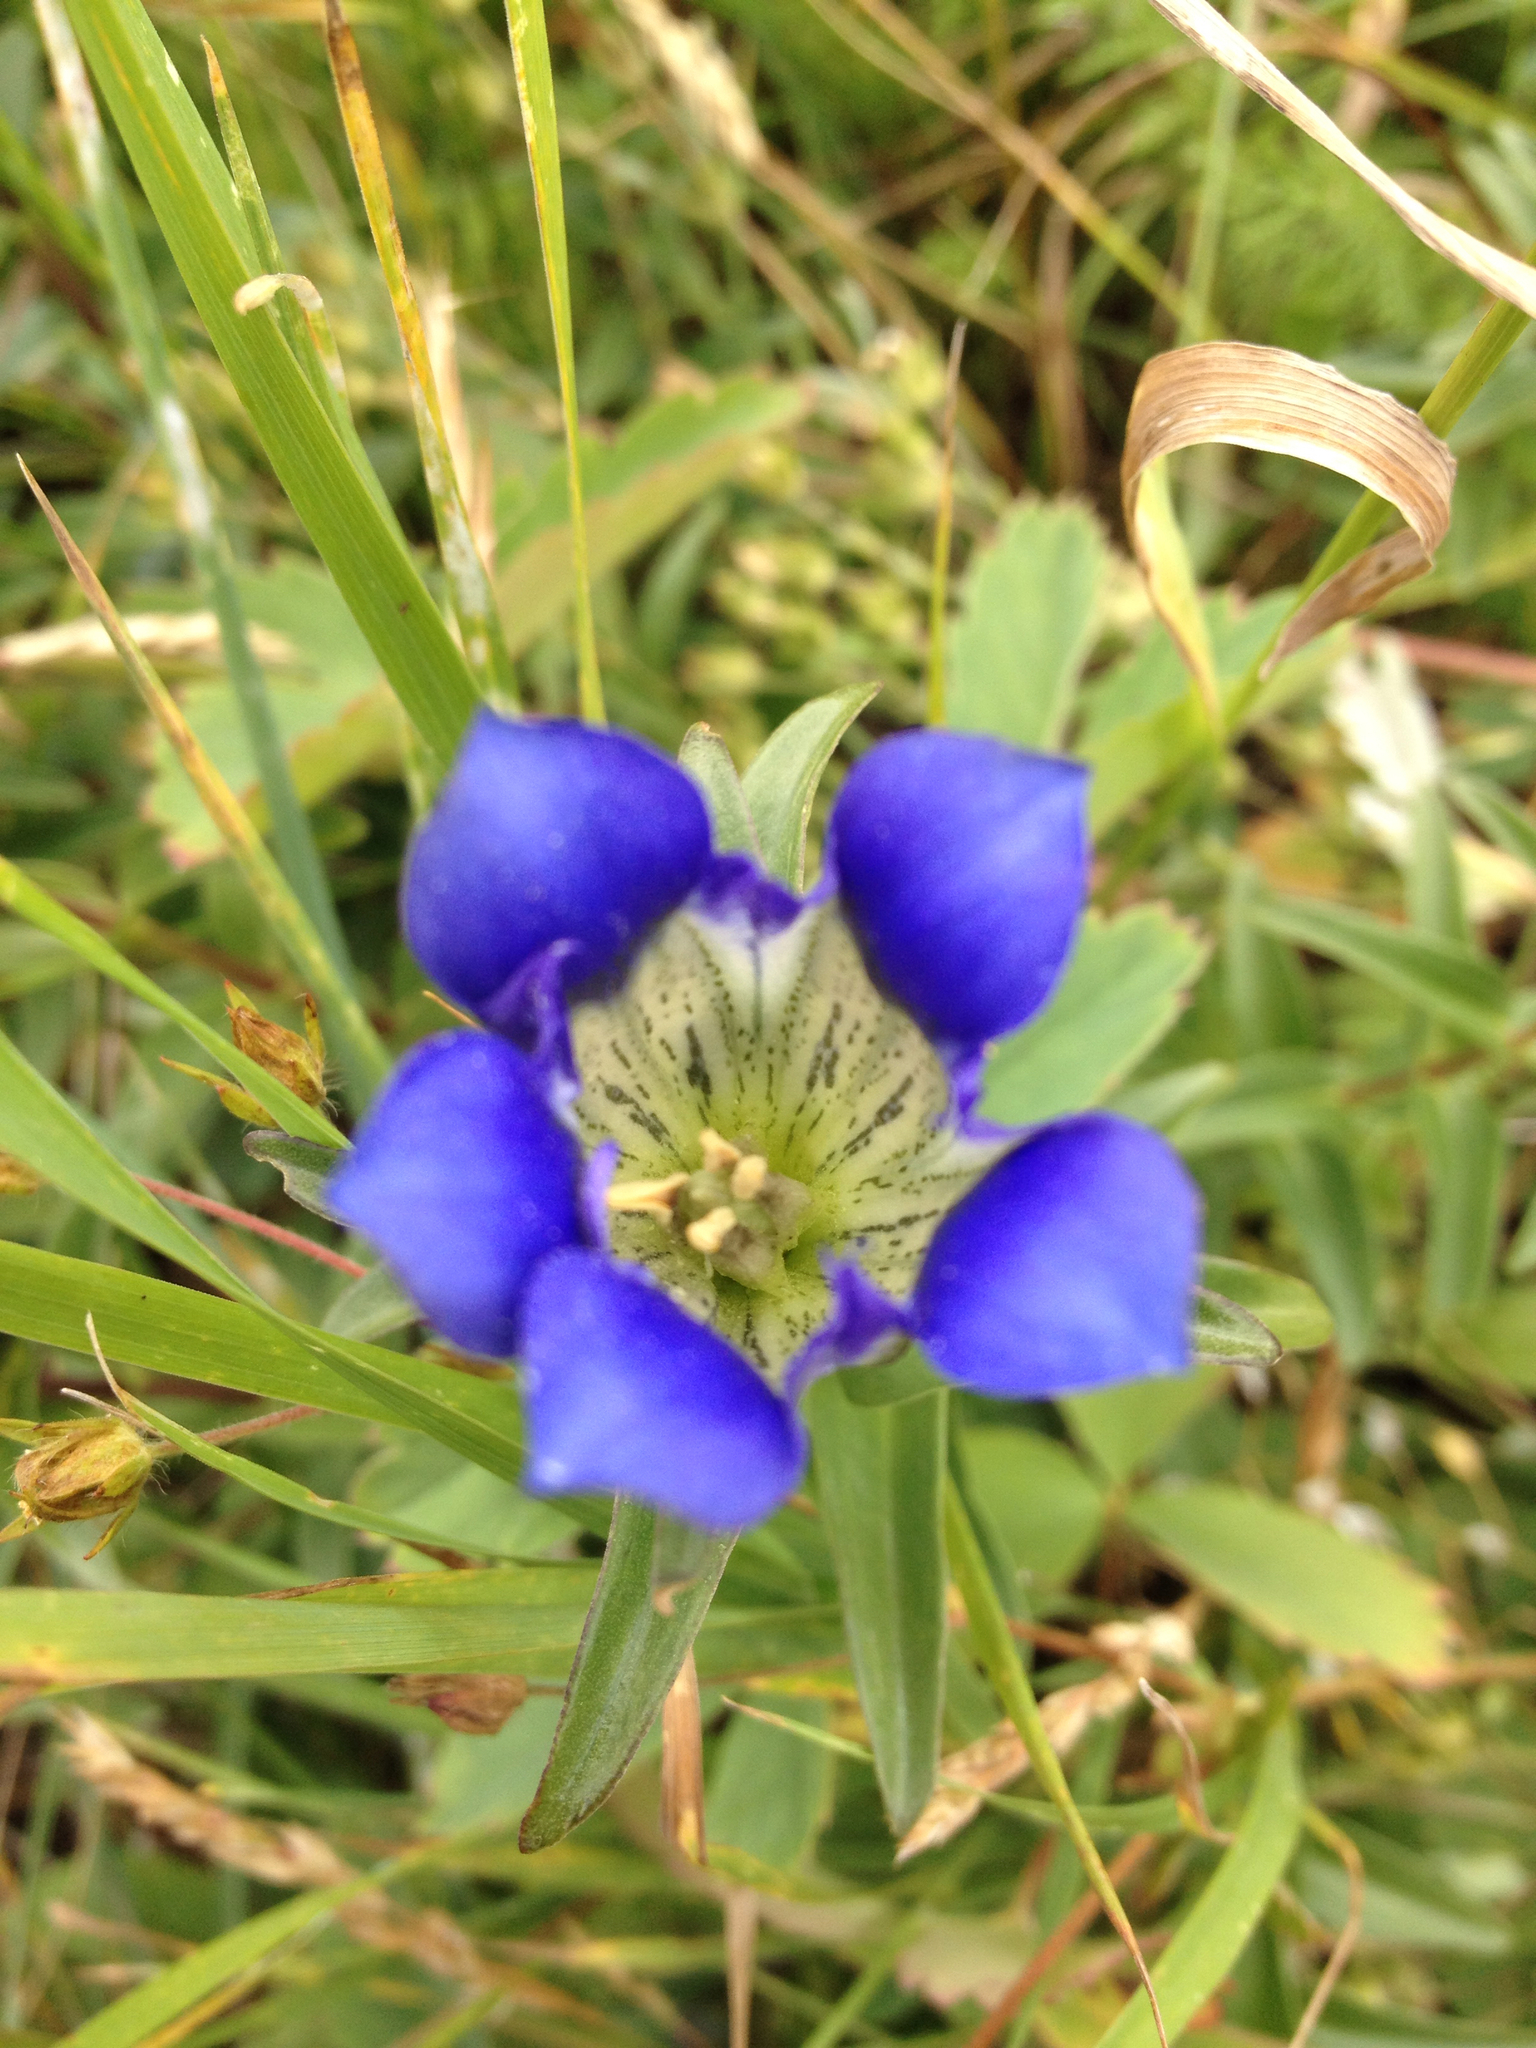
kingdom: Plantae
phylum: Tracheophyta
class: Magnoliopsida
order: Gentianales
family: Gentianaceae
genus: Gentiana
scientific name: Gentiana parryi
